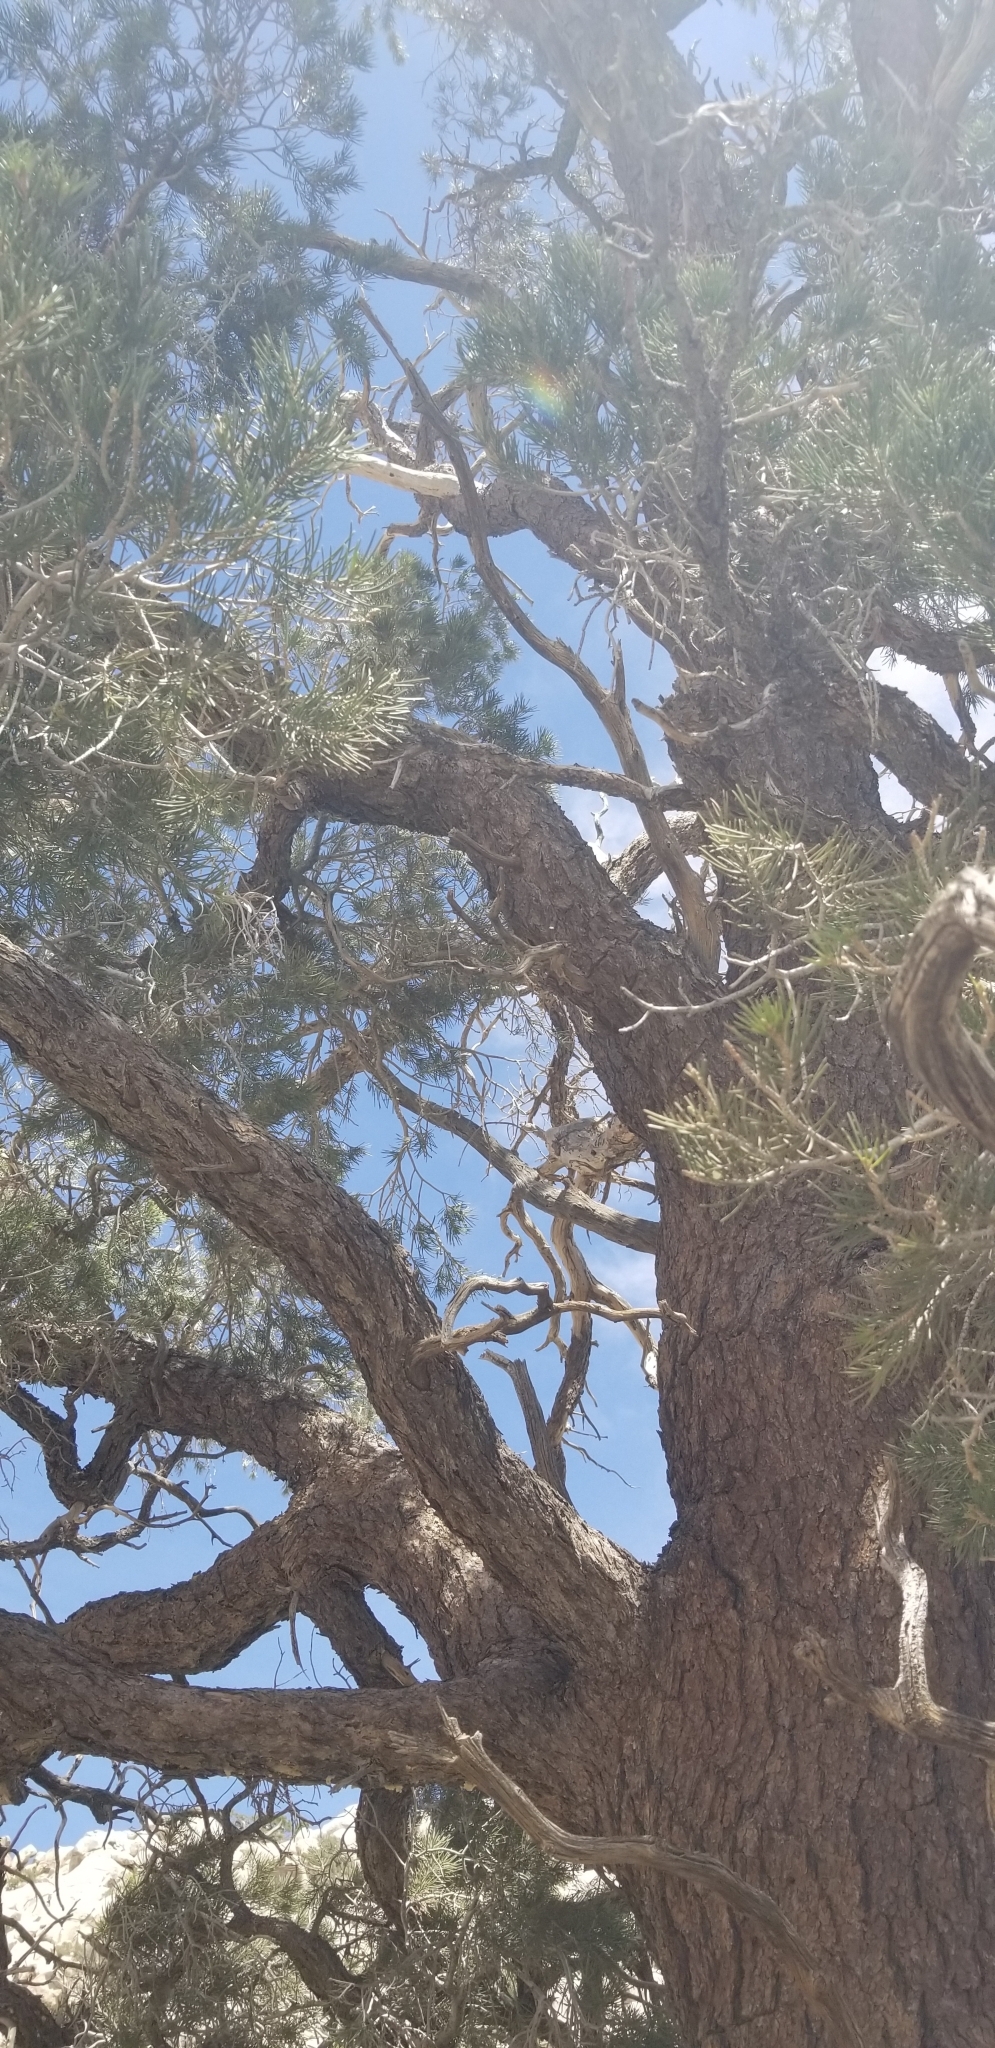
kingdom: Plantae
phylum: Tracheophyta
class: Pinopsida
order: Pinales
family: Pinaceae
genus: Pinus
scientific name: Pinus monophylla
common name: One-leaved nut pine
